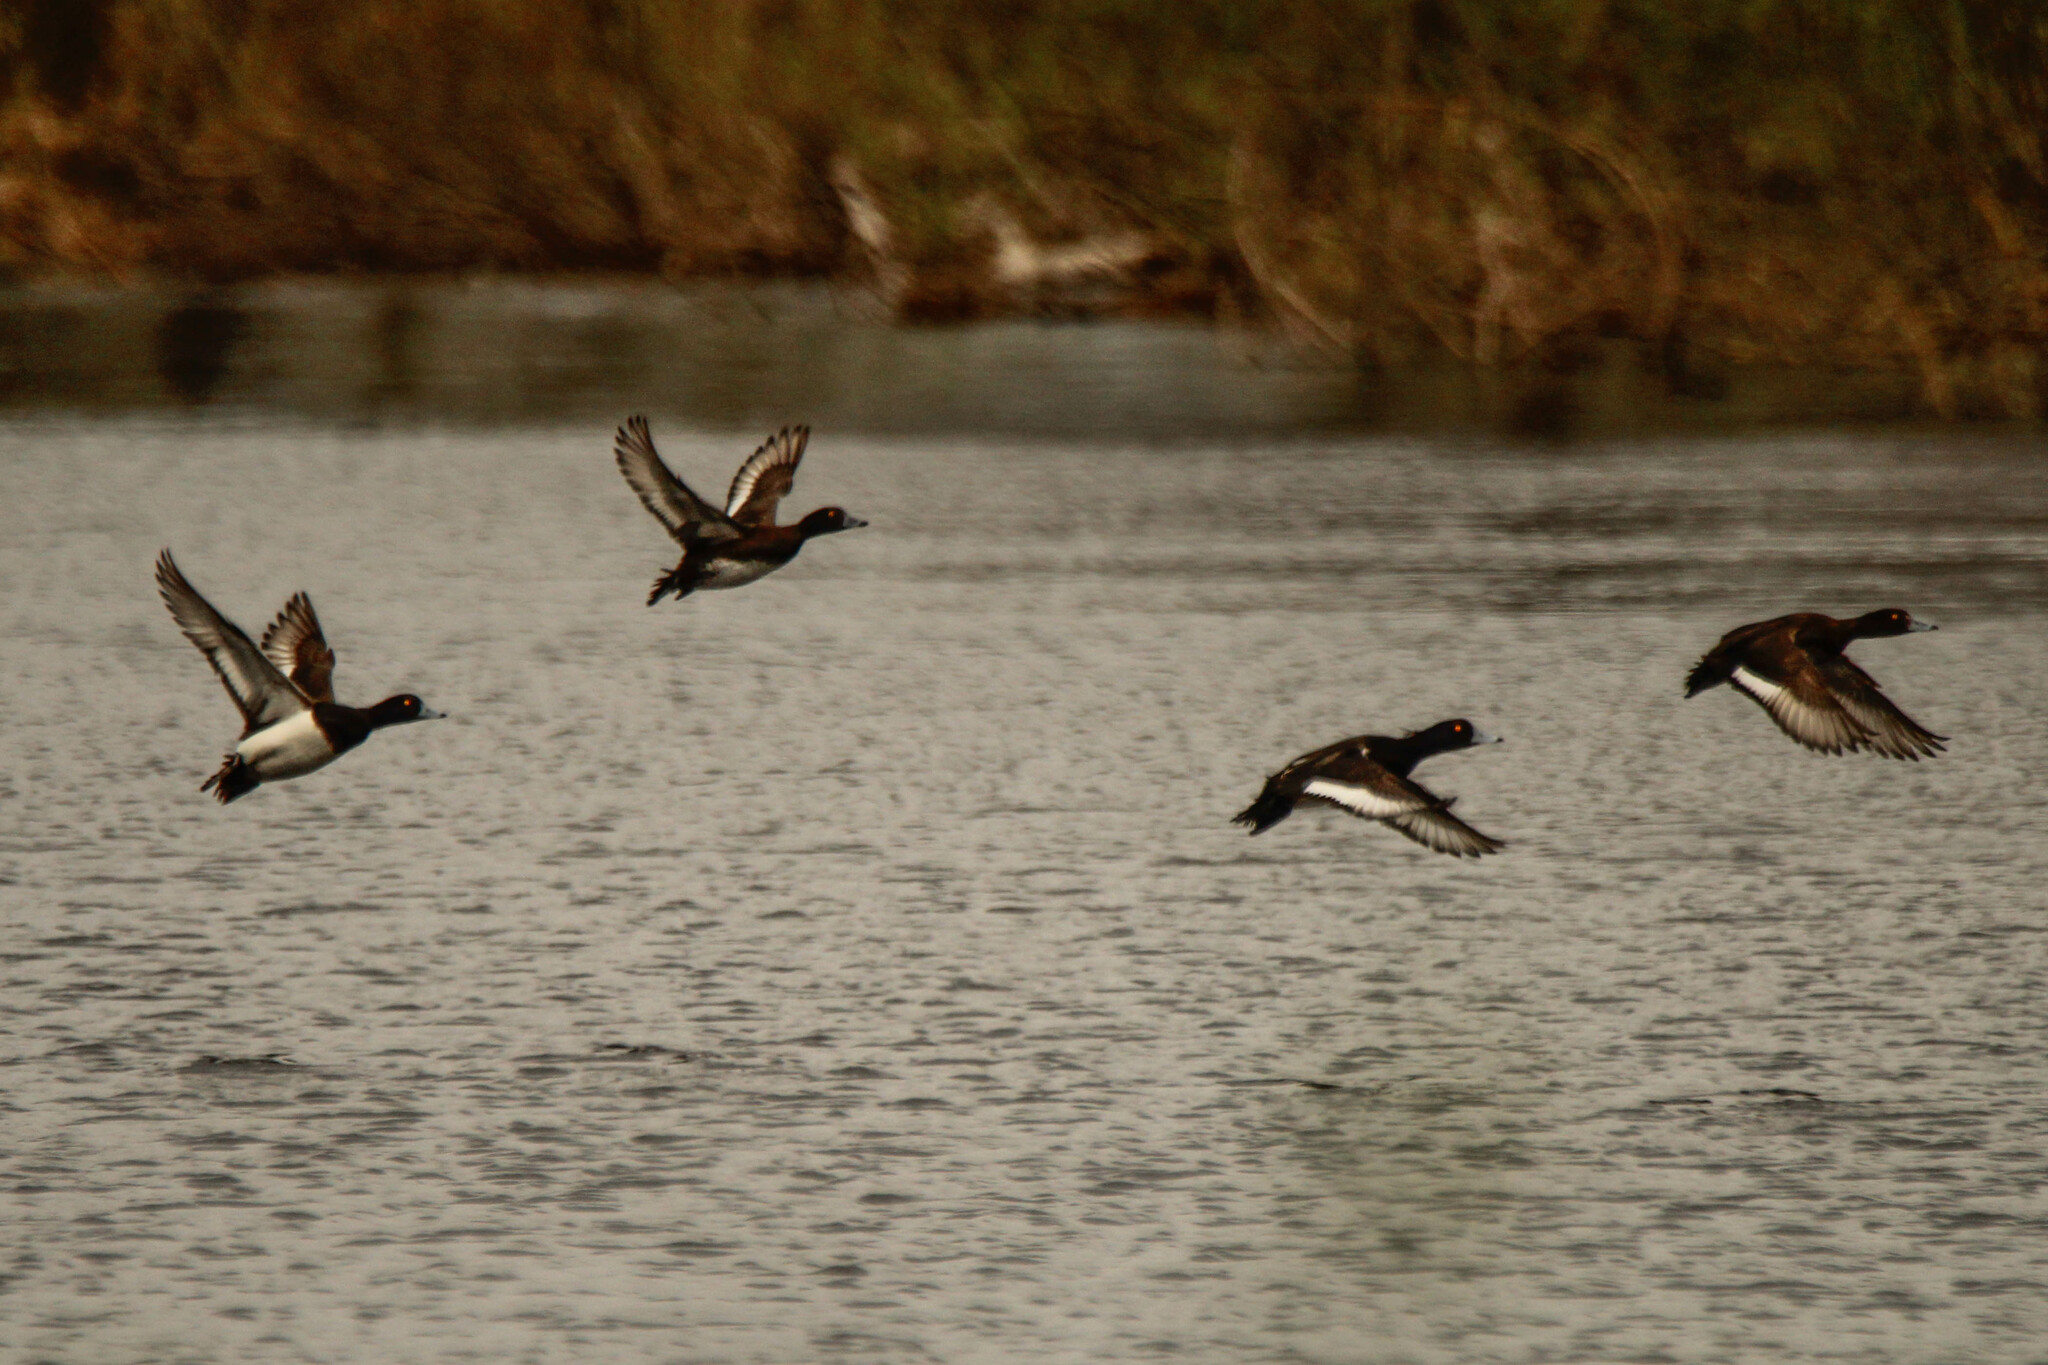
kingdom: Animalia
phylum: Chordata
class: Aves
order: Anseriformes
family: Anatidae
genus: Aythya
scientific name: Aythya fuligula
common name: Tufted duck
